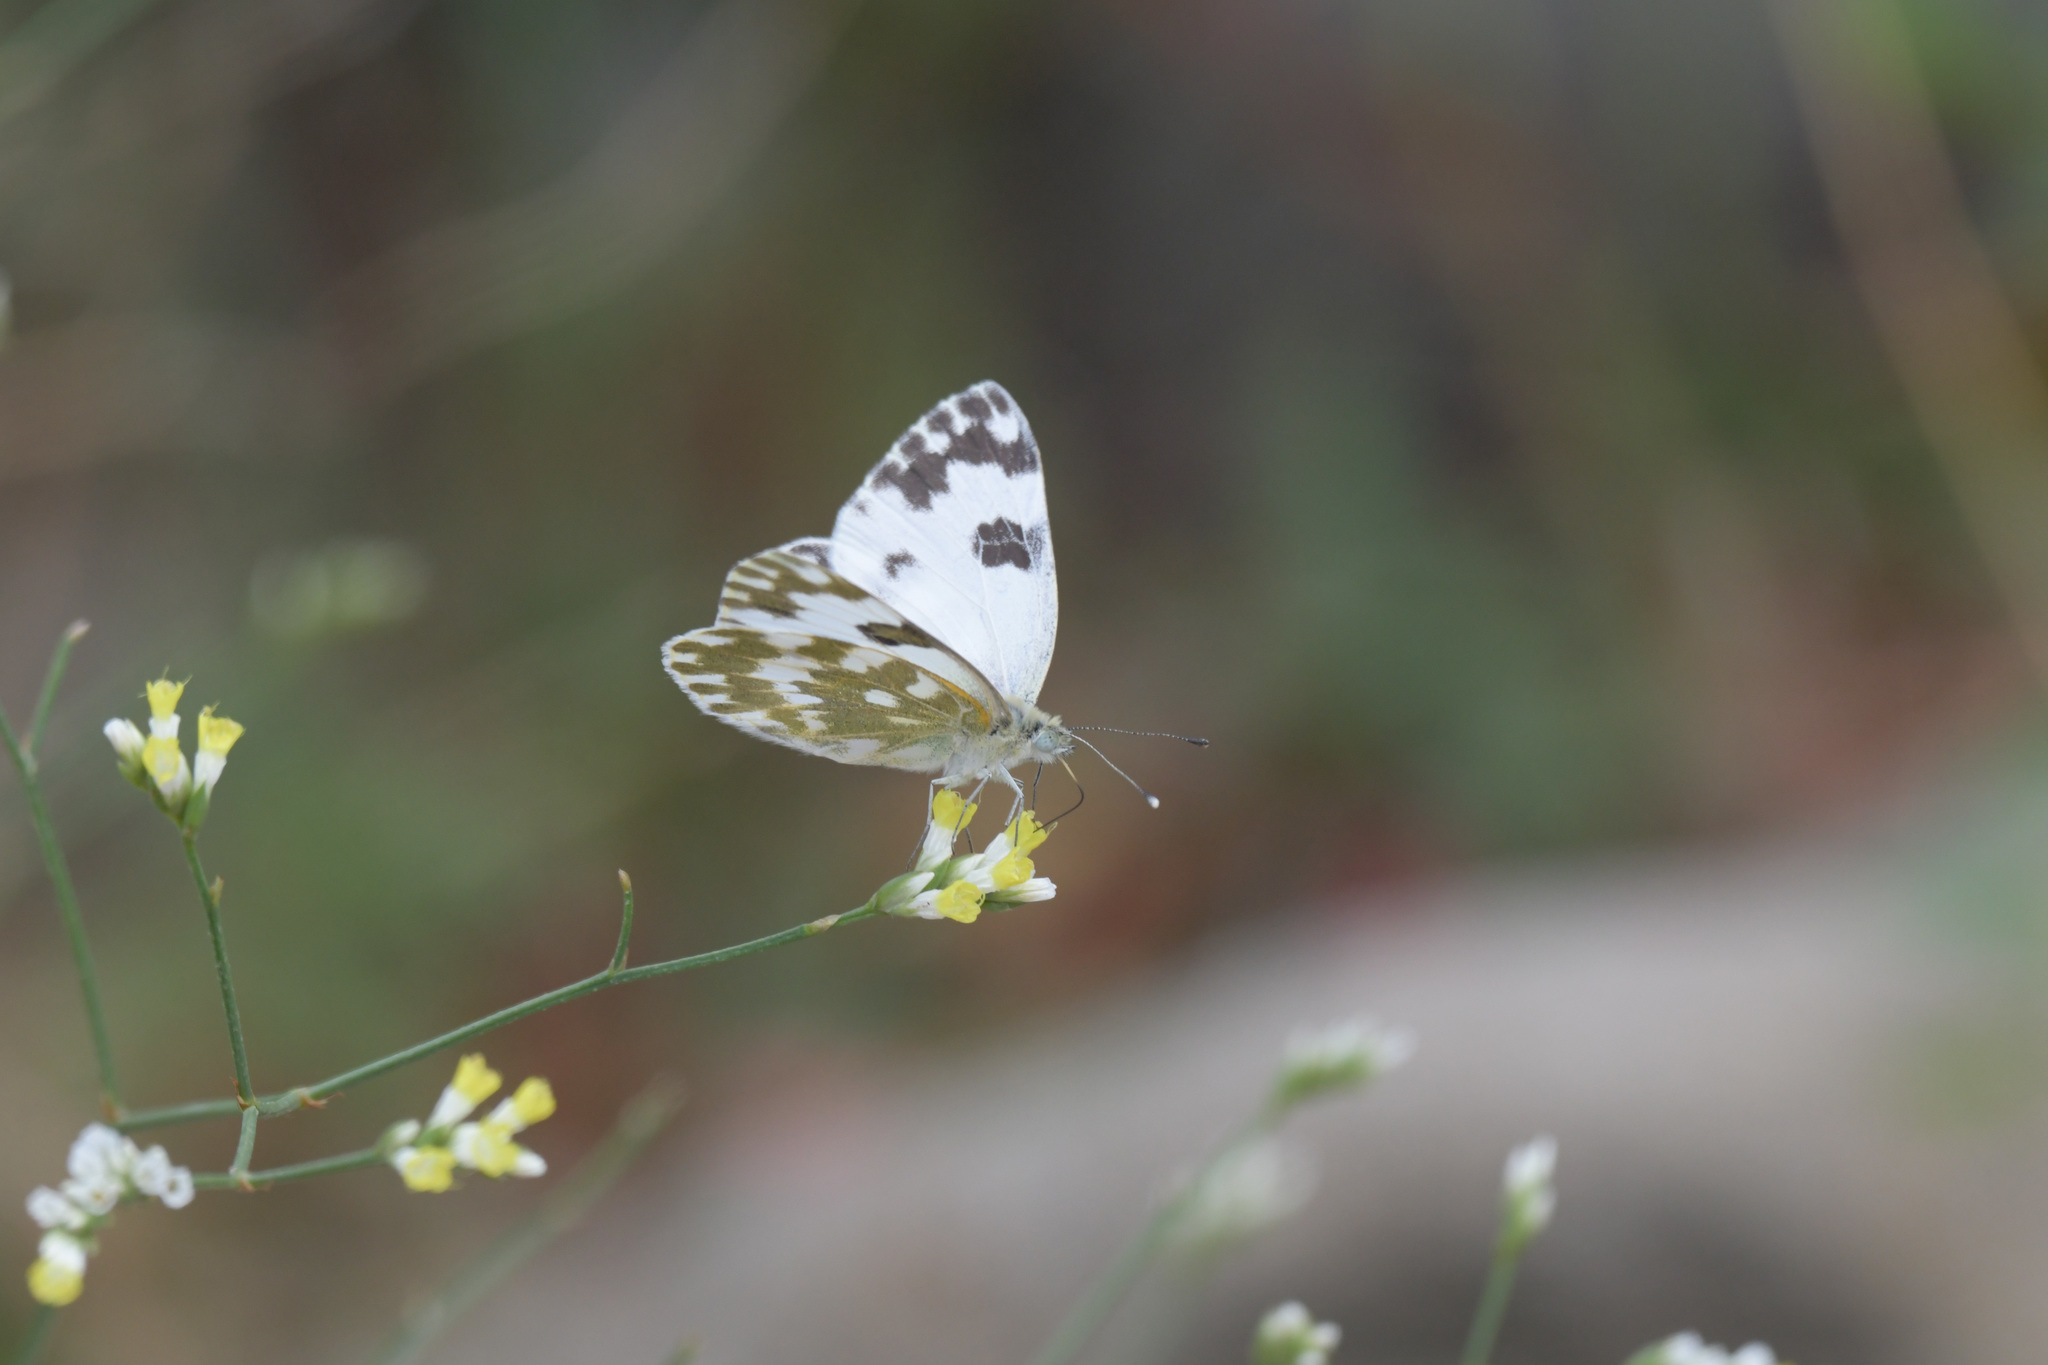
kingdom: Animalia
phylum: Arthropoda
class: Insecta
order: Lepidoptera
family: Pieridae
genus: Pontia
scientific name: Pontia edusa
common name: Eastern bath white
